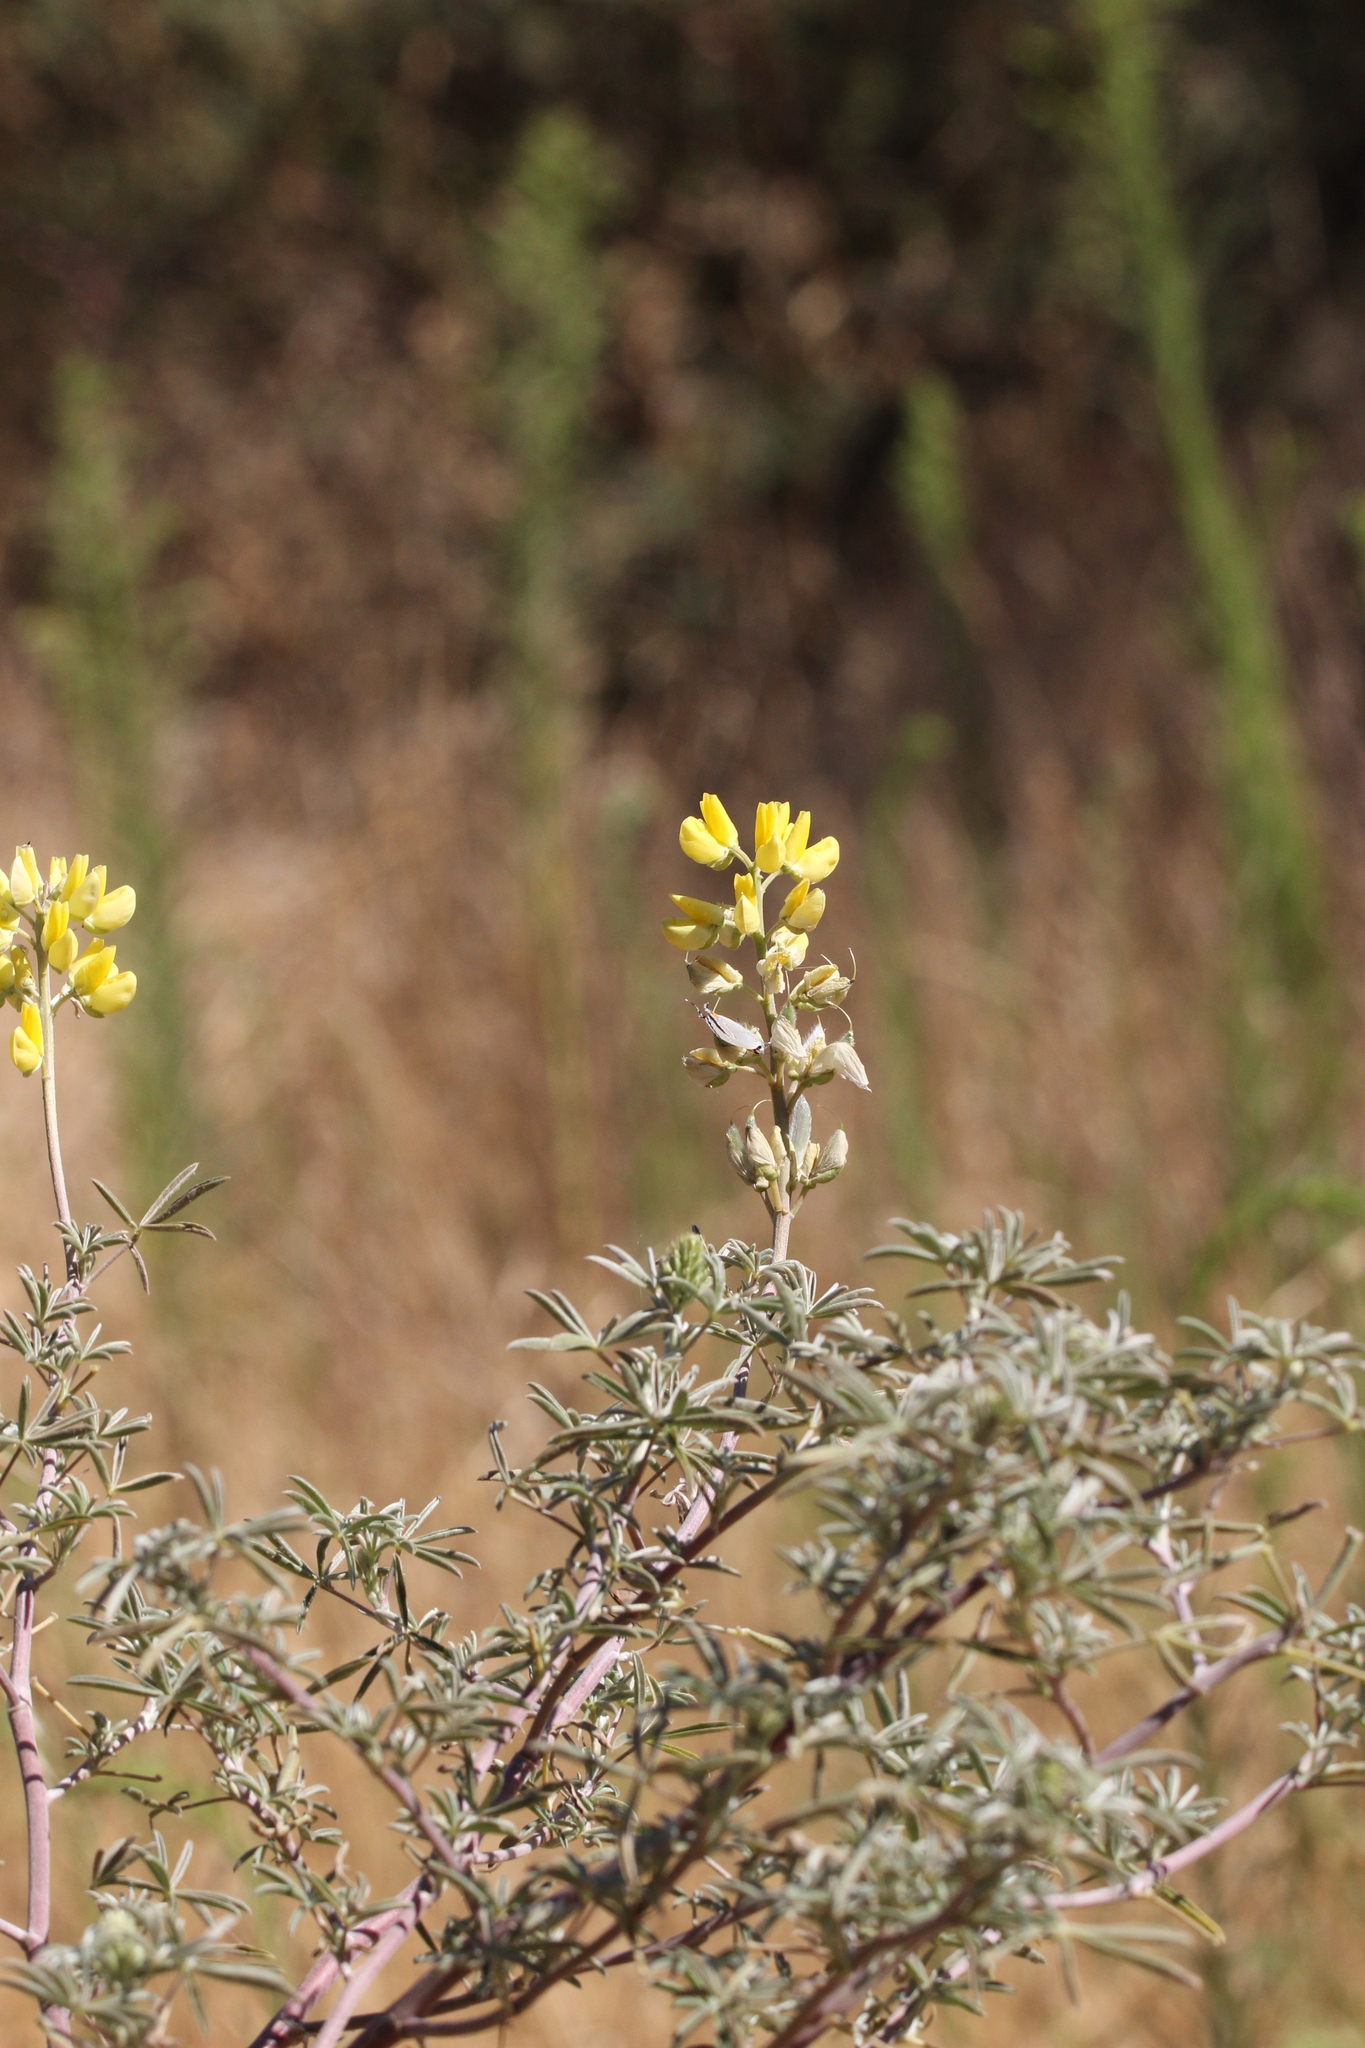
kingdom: Plantae
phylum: Tracheophyta
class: Magnoliopsida
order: Fabales
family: Fabaceae
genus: Lupinus
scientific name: Lupinus arboreus
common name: Yellow bush lupine
